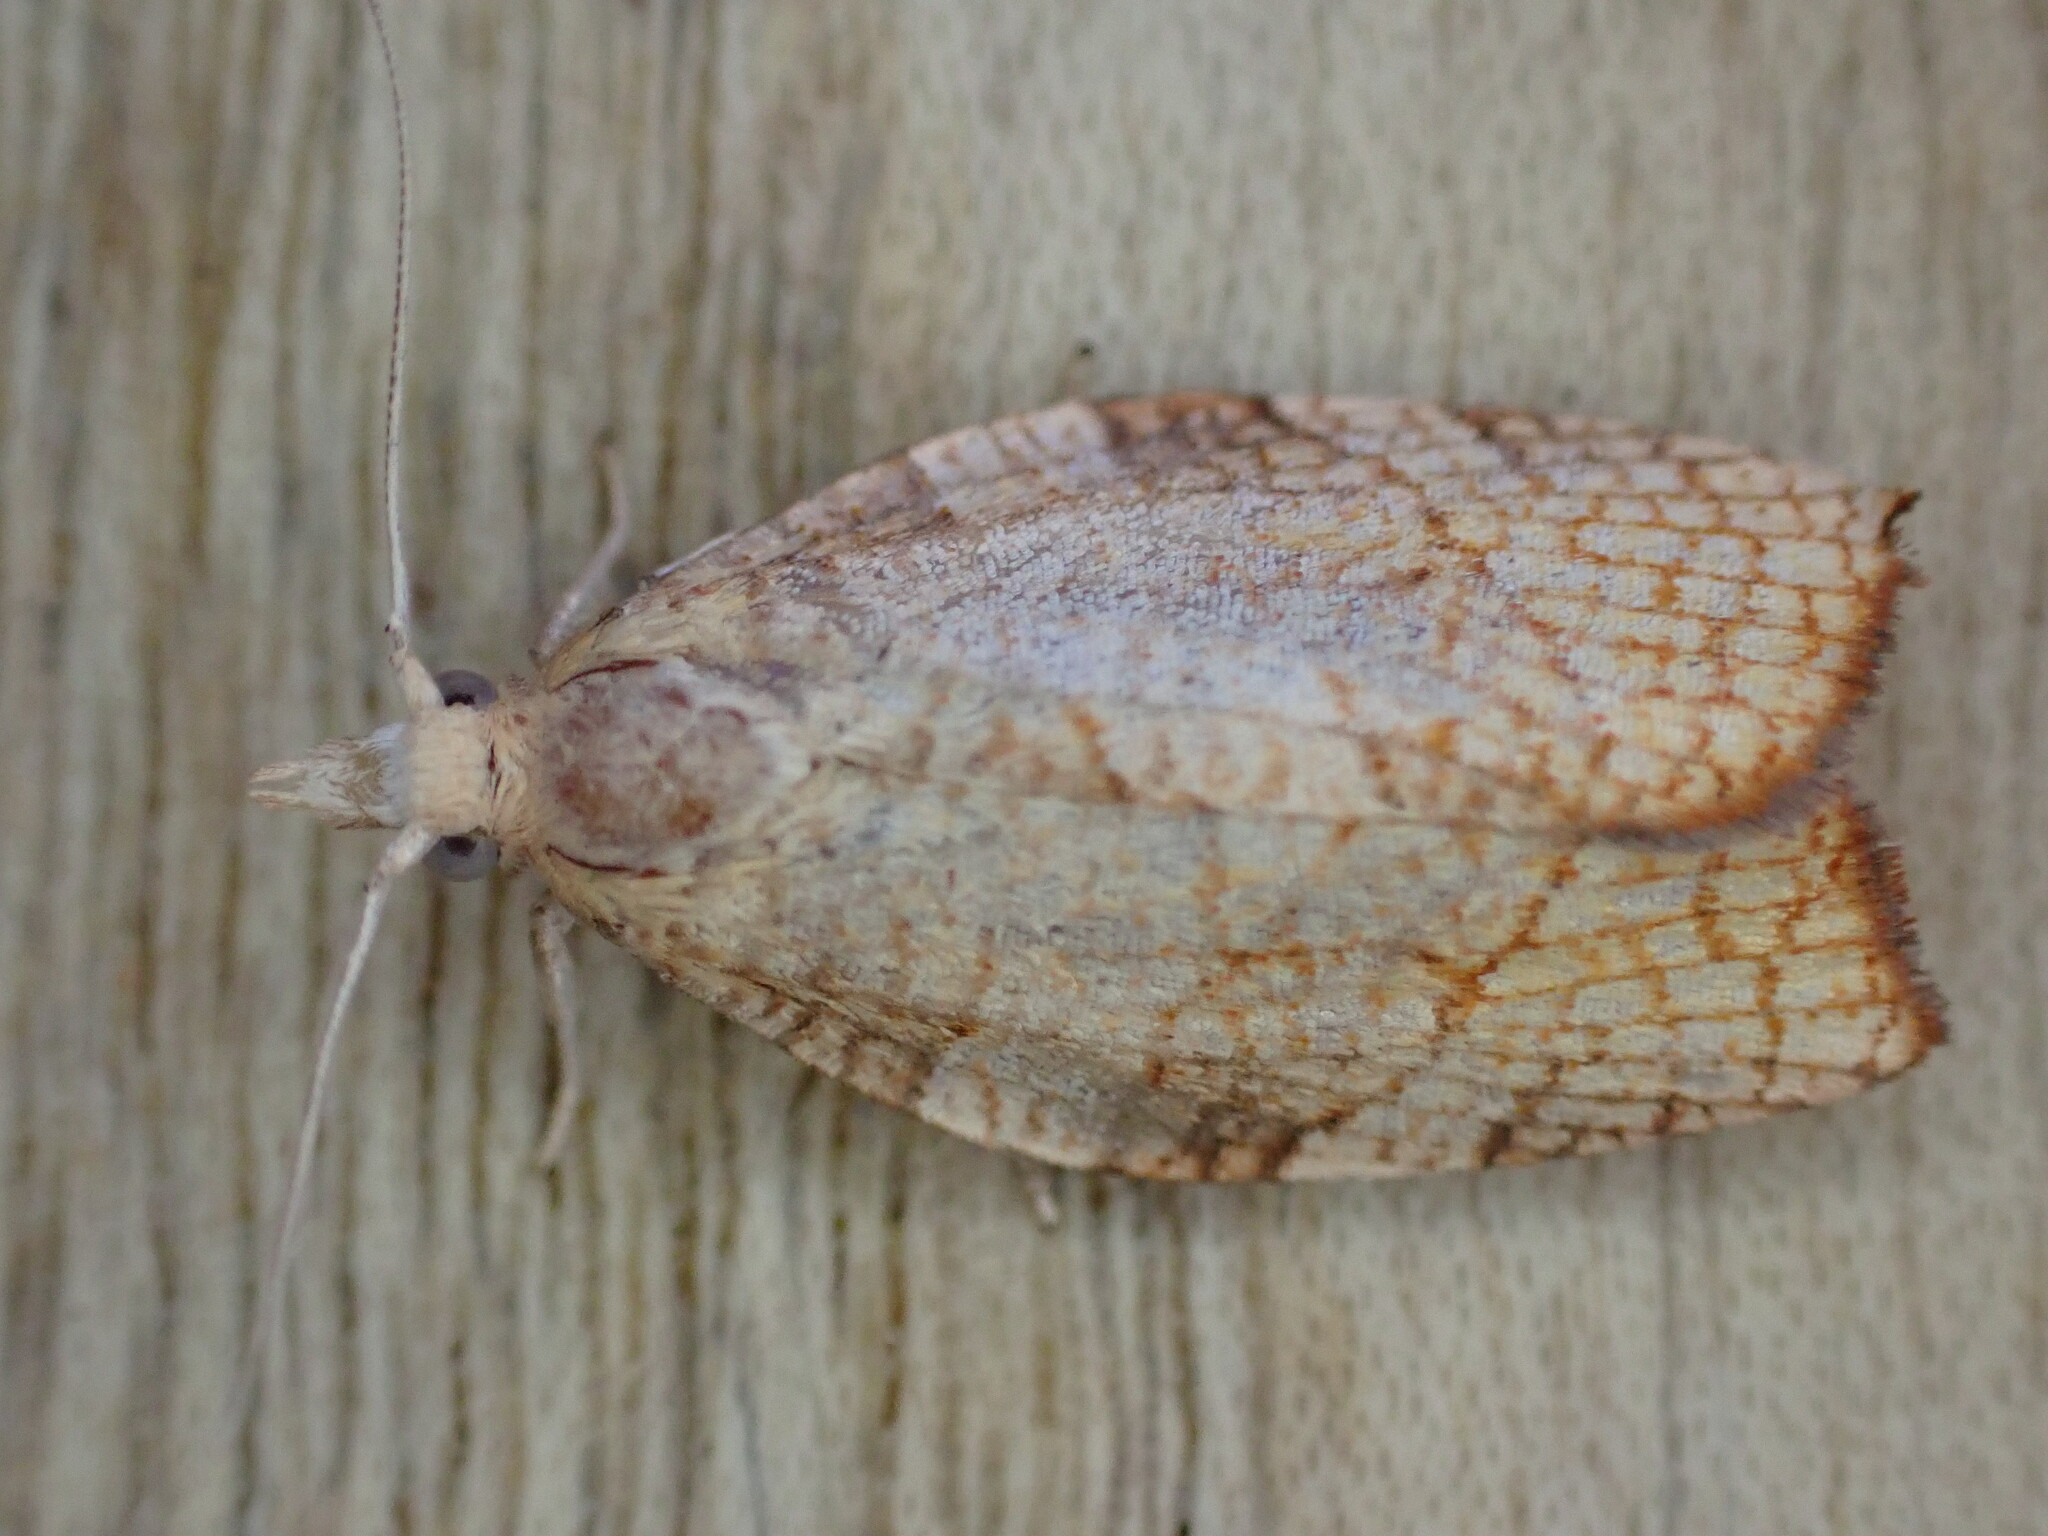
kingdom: Animalia
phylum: Arthropoda
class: Insecta
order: Lepidoptera
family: Tortricidae
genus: Pandemis
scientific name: Pandemis corylana
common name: Chequered fruit-tree tortrix
